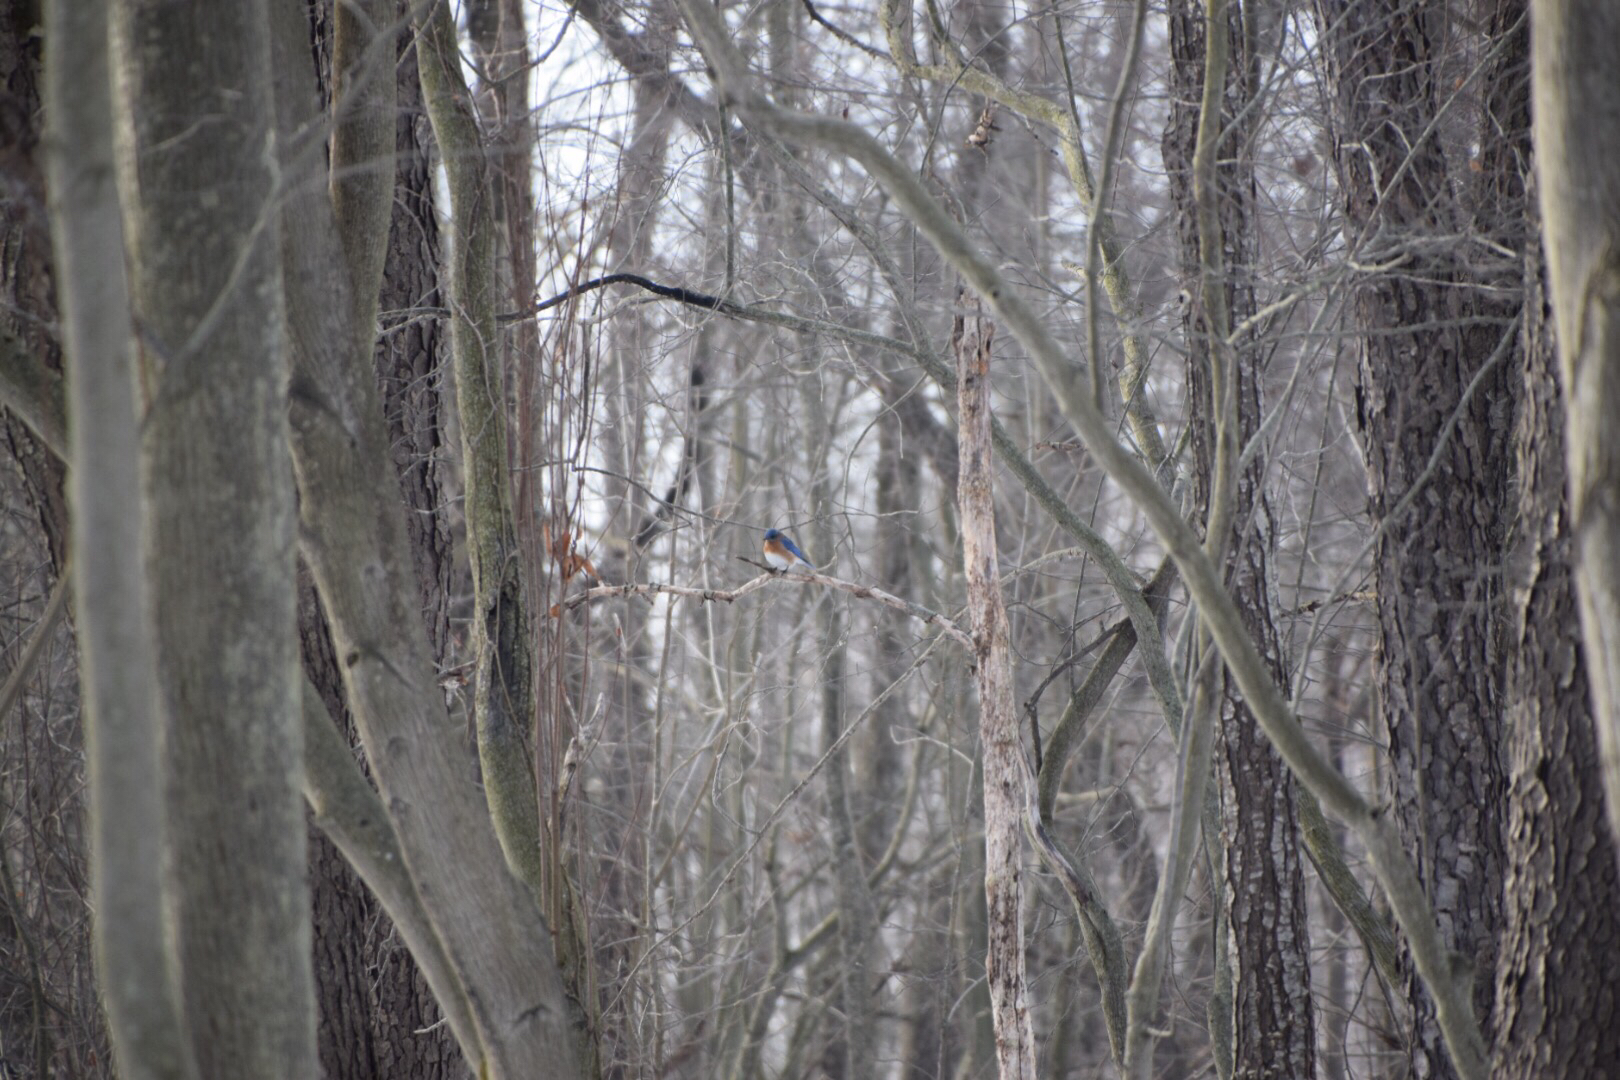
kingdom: Animalia
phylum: Chordata
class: Aves
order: Passeriformes
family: Turdidae
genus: Sialia
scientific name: Sialia sialis
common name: Eastern bluebird
